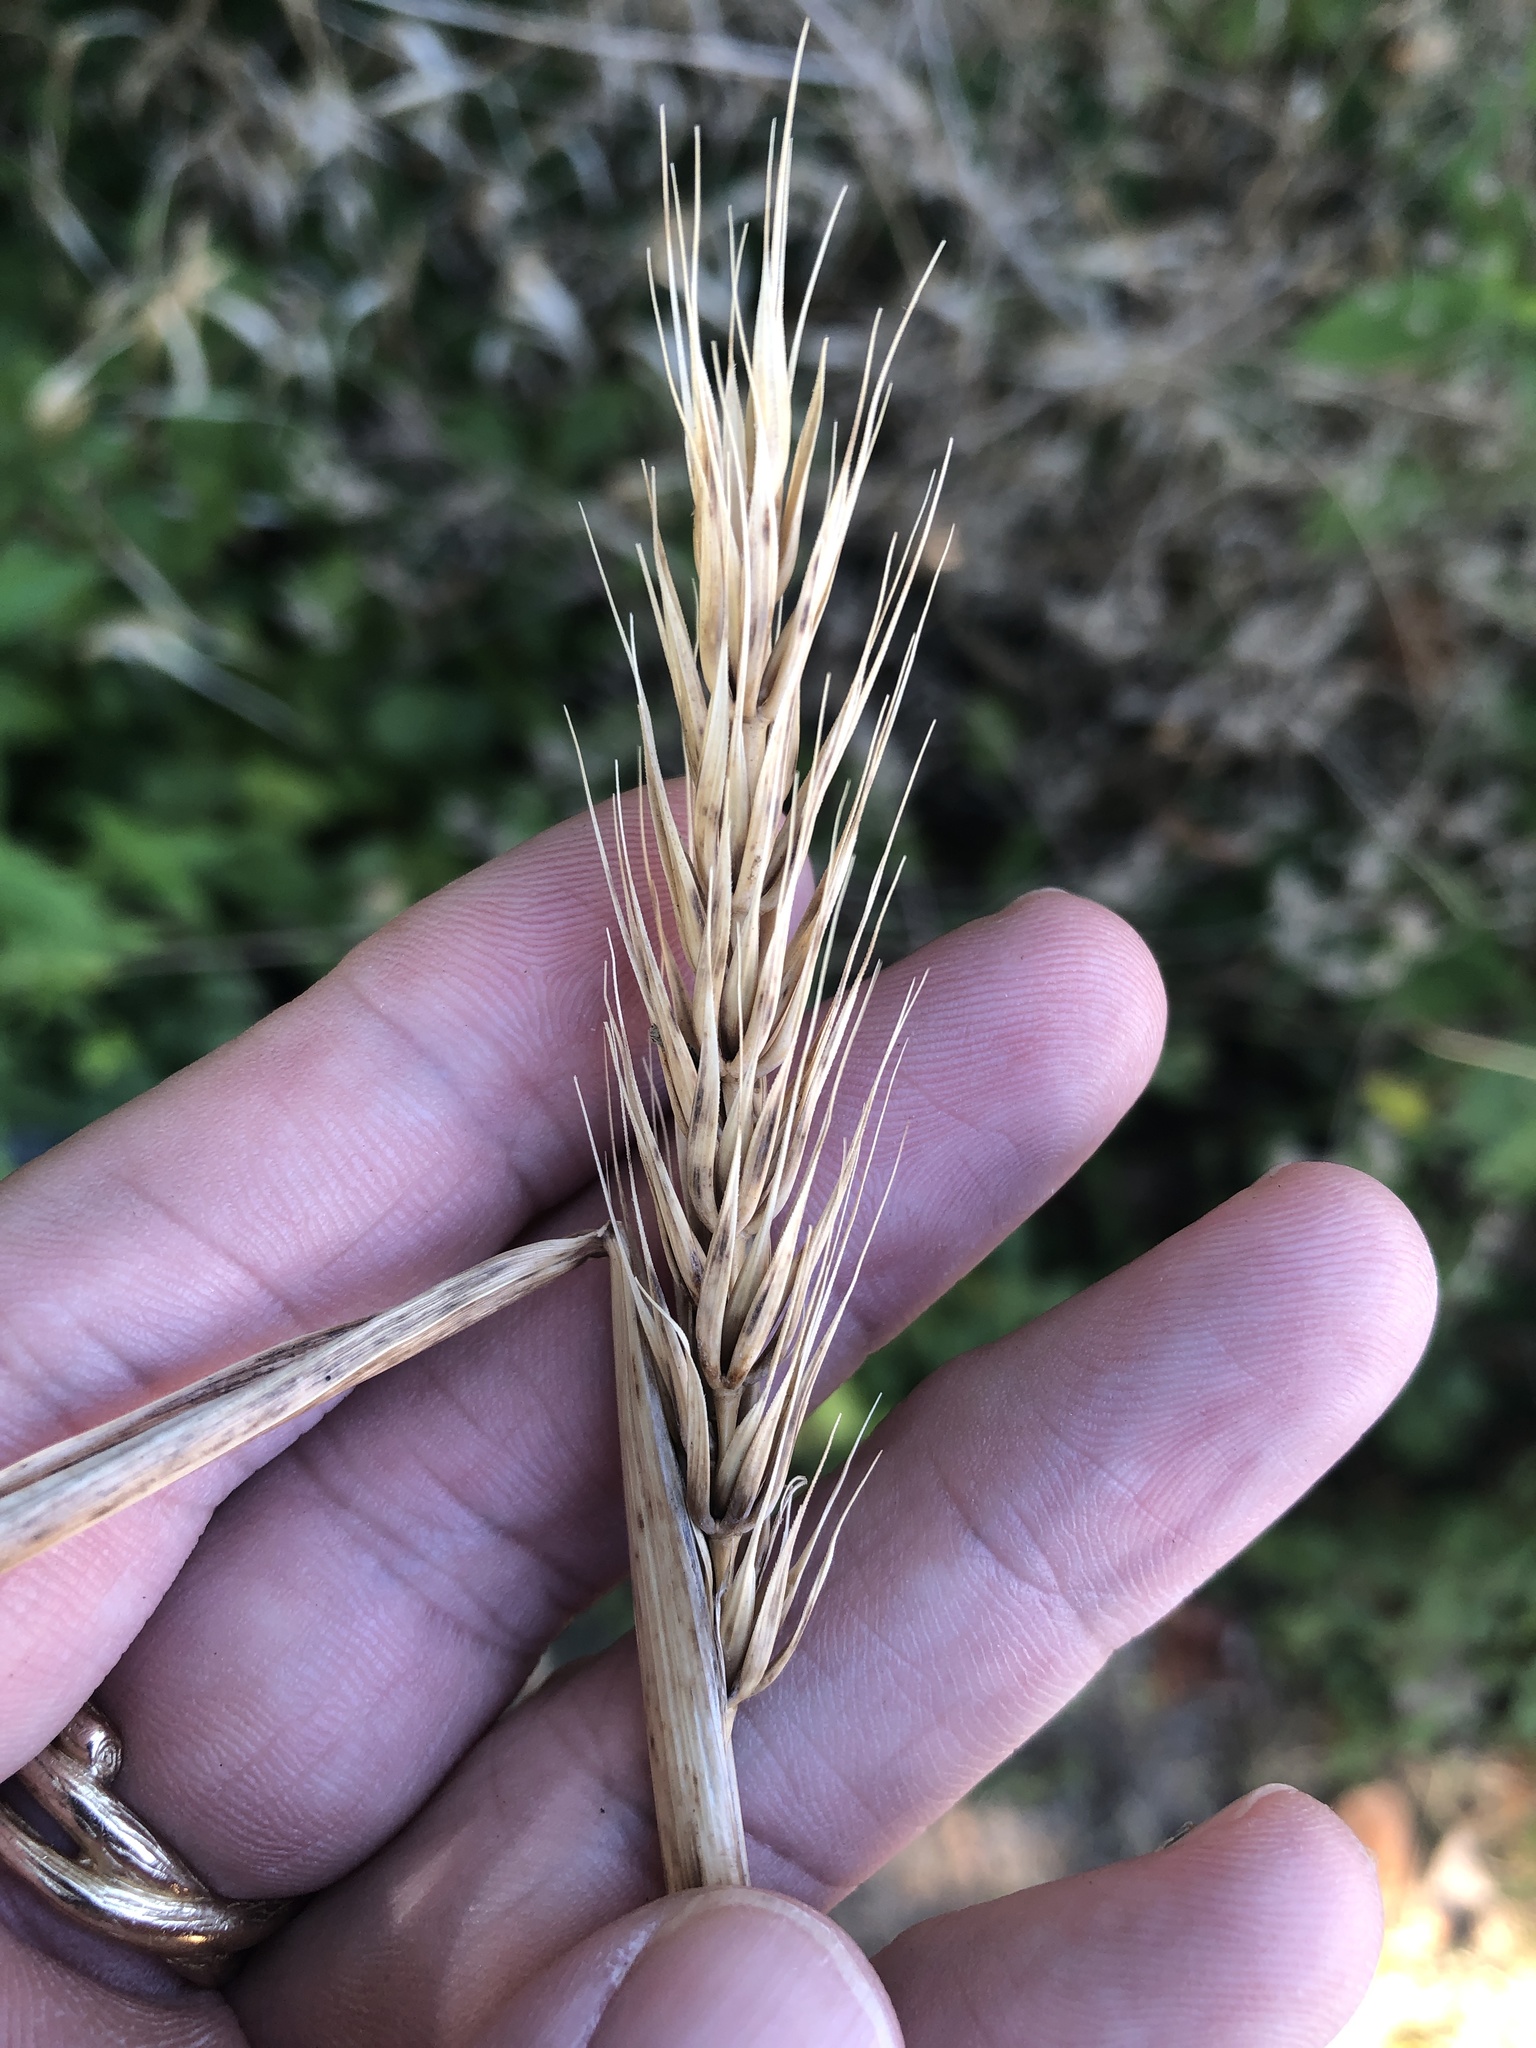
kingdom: Plantae
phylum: Tracheophyta
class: Liliopsida
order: Poales
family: Poaceae
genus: Elymus
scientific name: Elymus virginicus
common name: Common eastern wildrye
